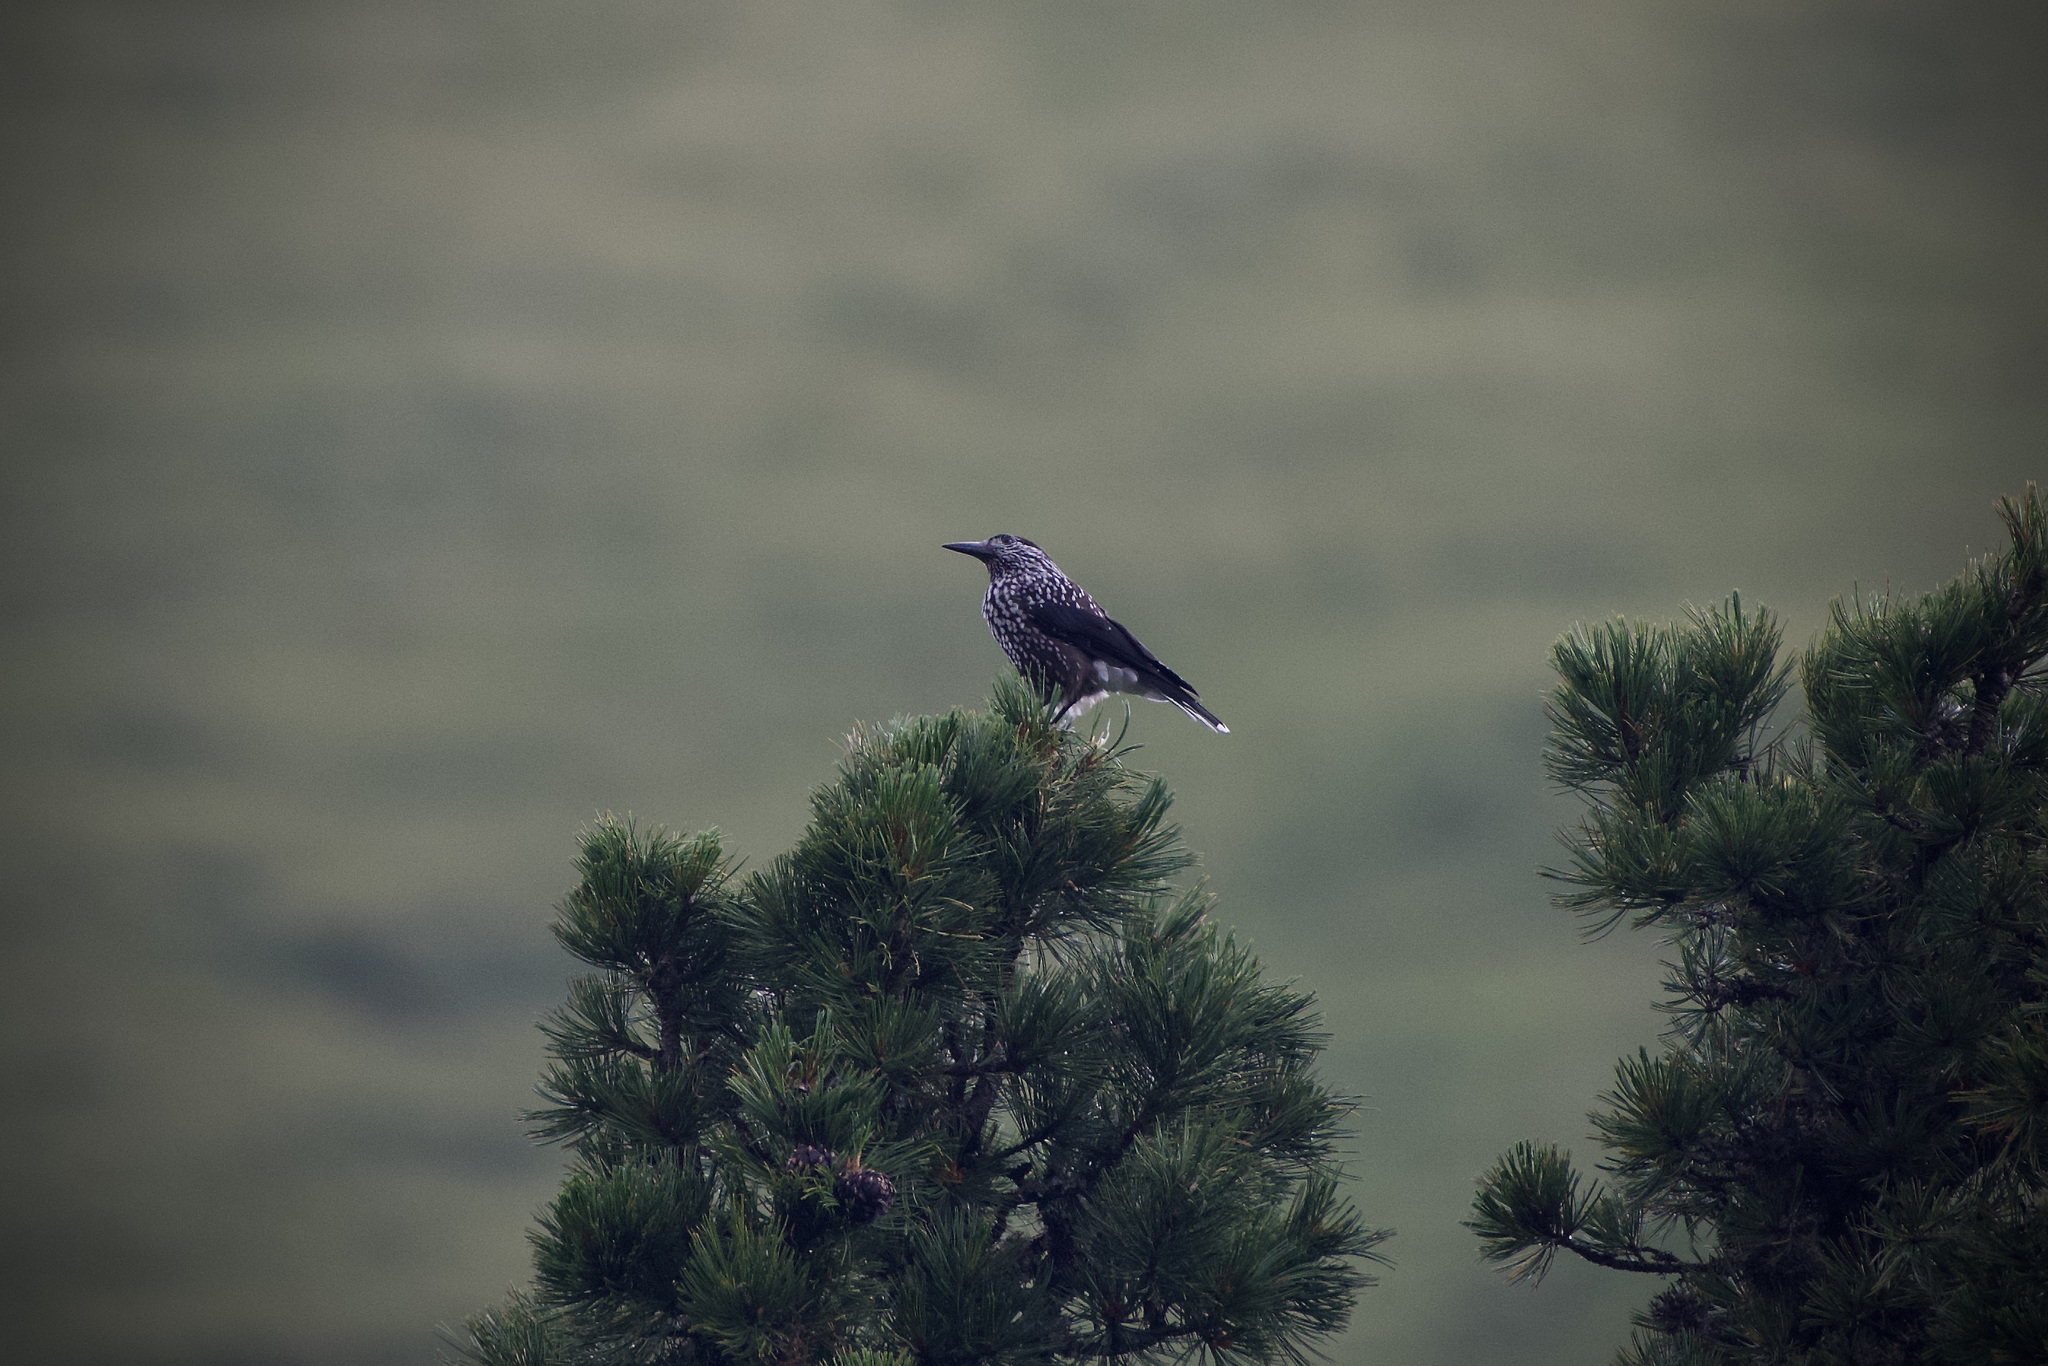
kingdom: Animalia
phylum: Chordata
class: Aves
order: Passeriformes
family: Corvidae
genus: Nucifraga
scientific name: Nucifraga caryocatactes
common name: Spotted nutcracker
